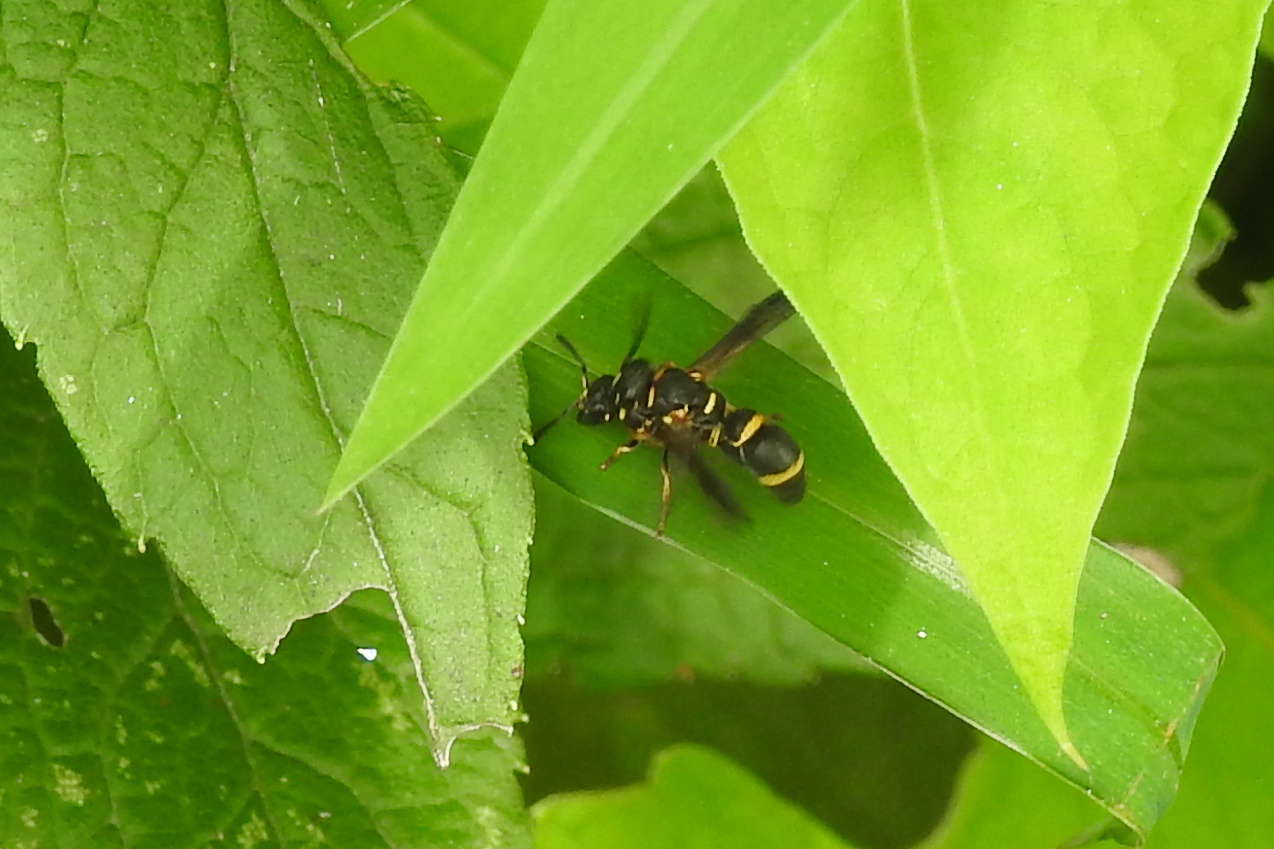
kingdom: Animalia
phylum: Arthropoda
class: Insecta
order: Hymenoptera
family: Eumenidae
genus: Parancistrocerus
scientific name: Parancistrocerus perennis
